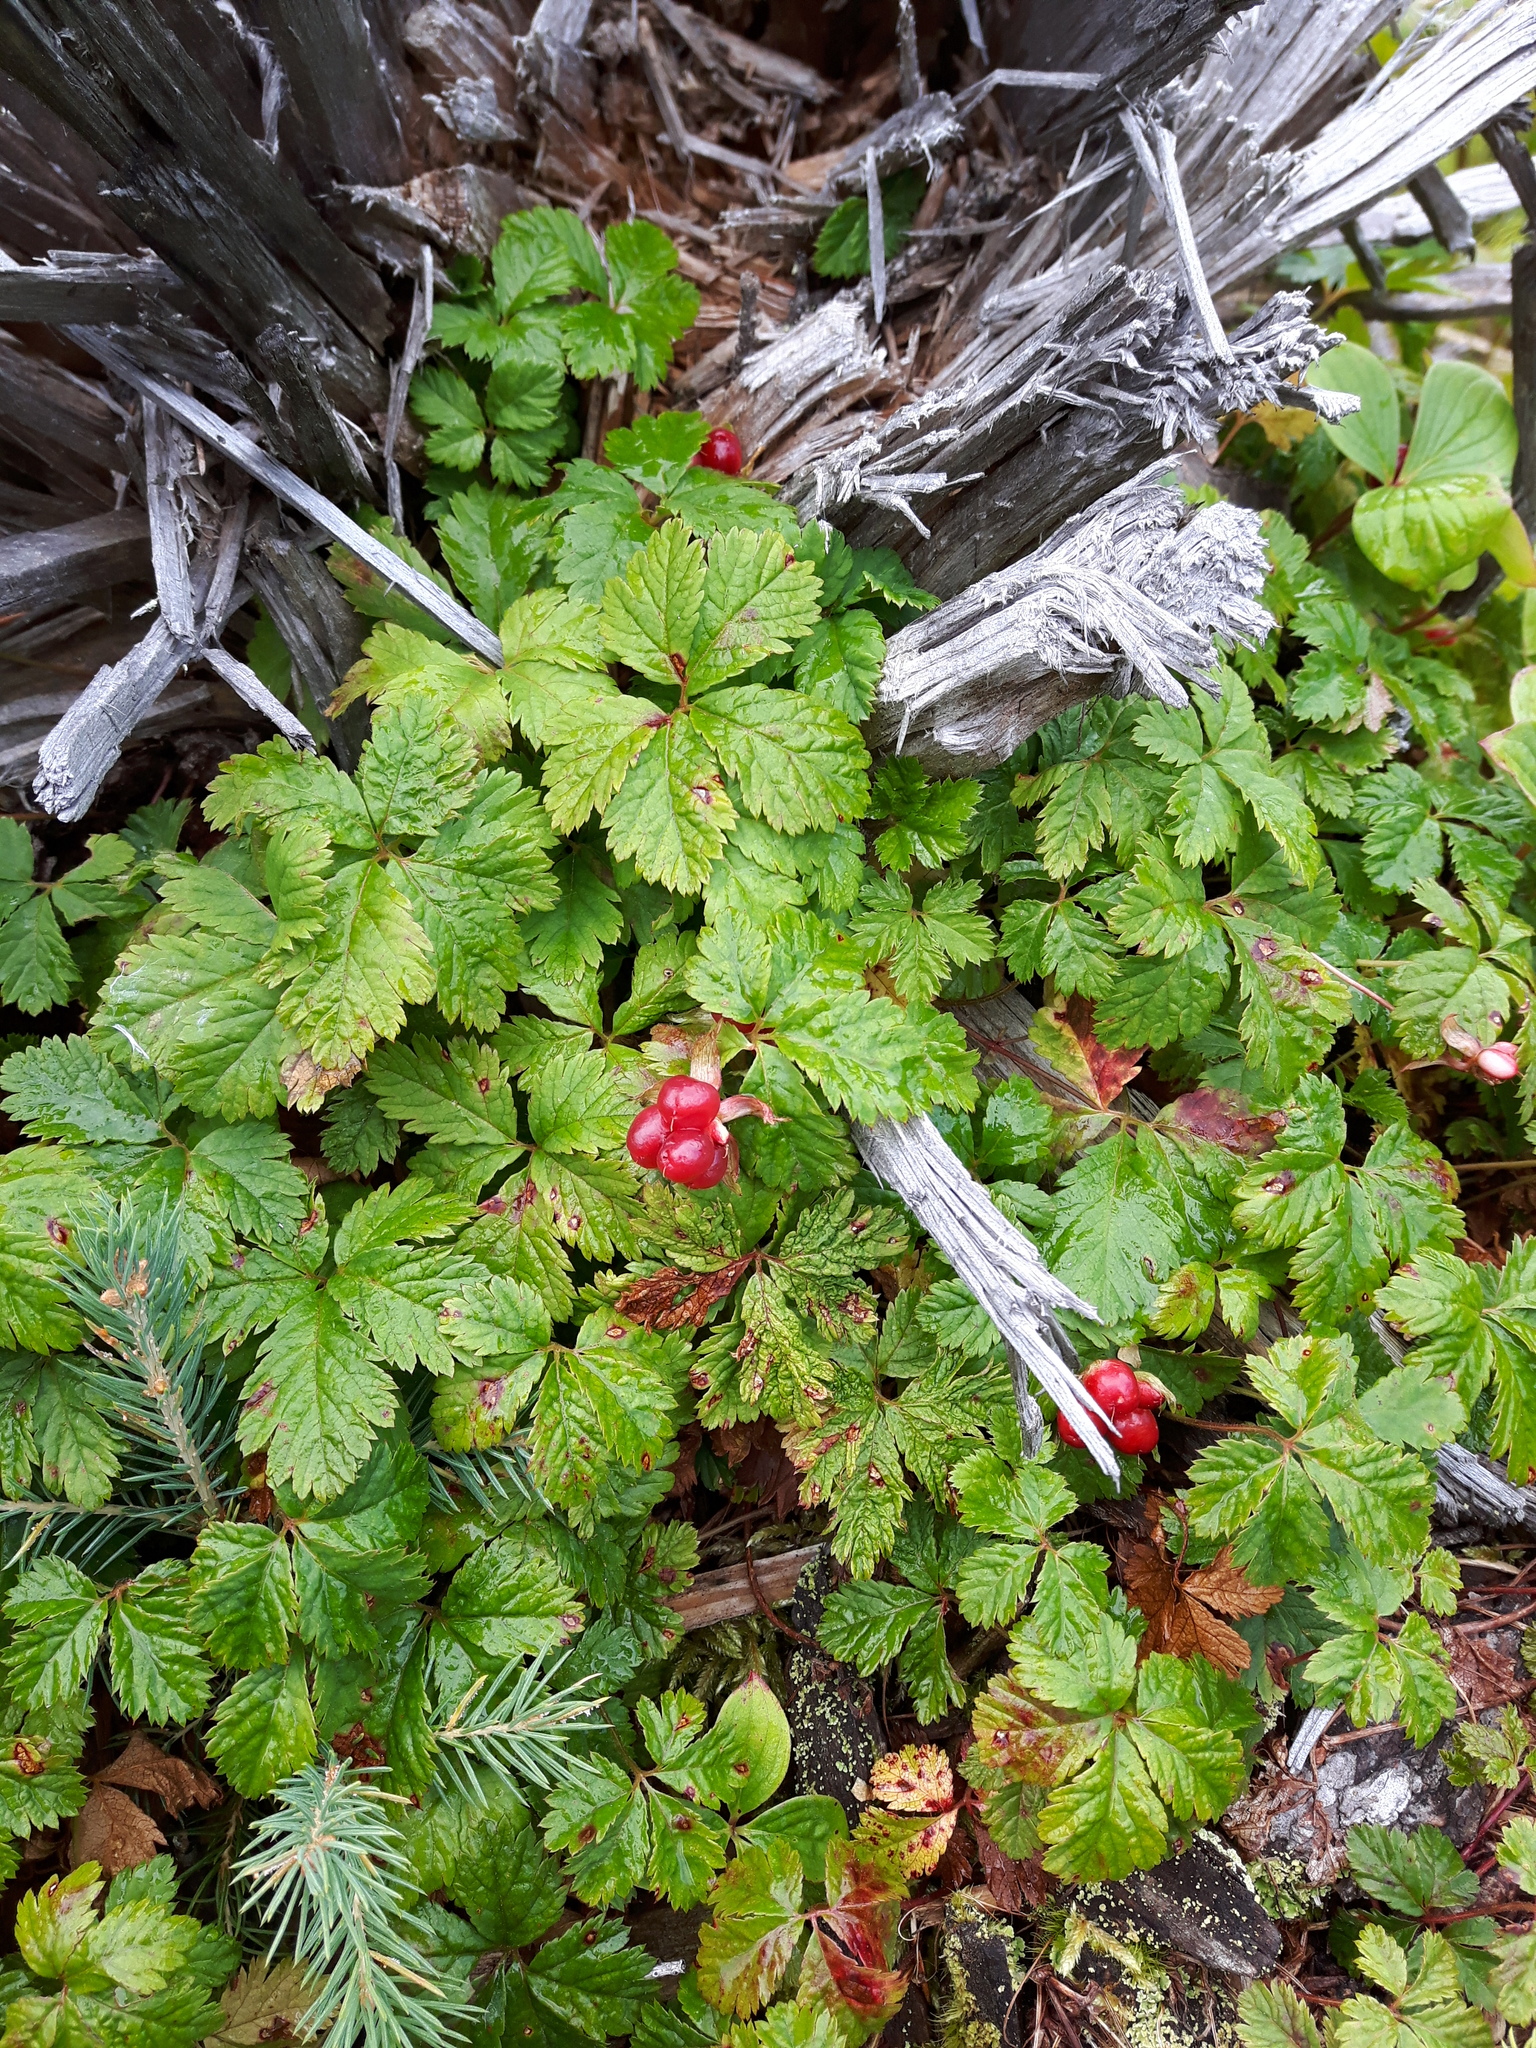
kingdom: Plantae
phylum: Tracheophyta
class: Magnoliopsida
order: Rosales
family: Rosaceae
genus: Rubus
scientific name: Rubus pedatus
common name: Creeping raspberry
